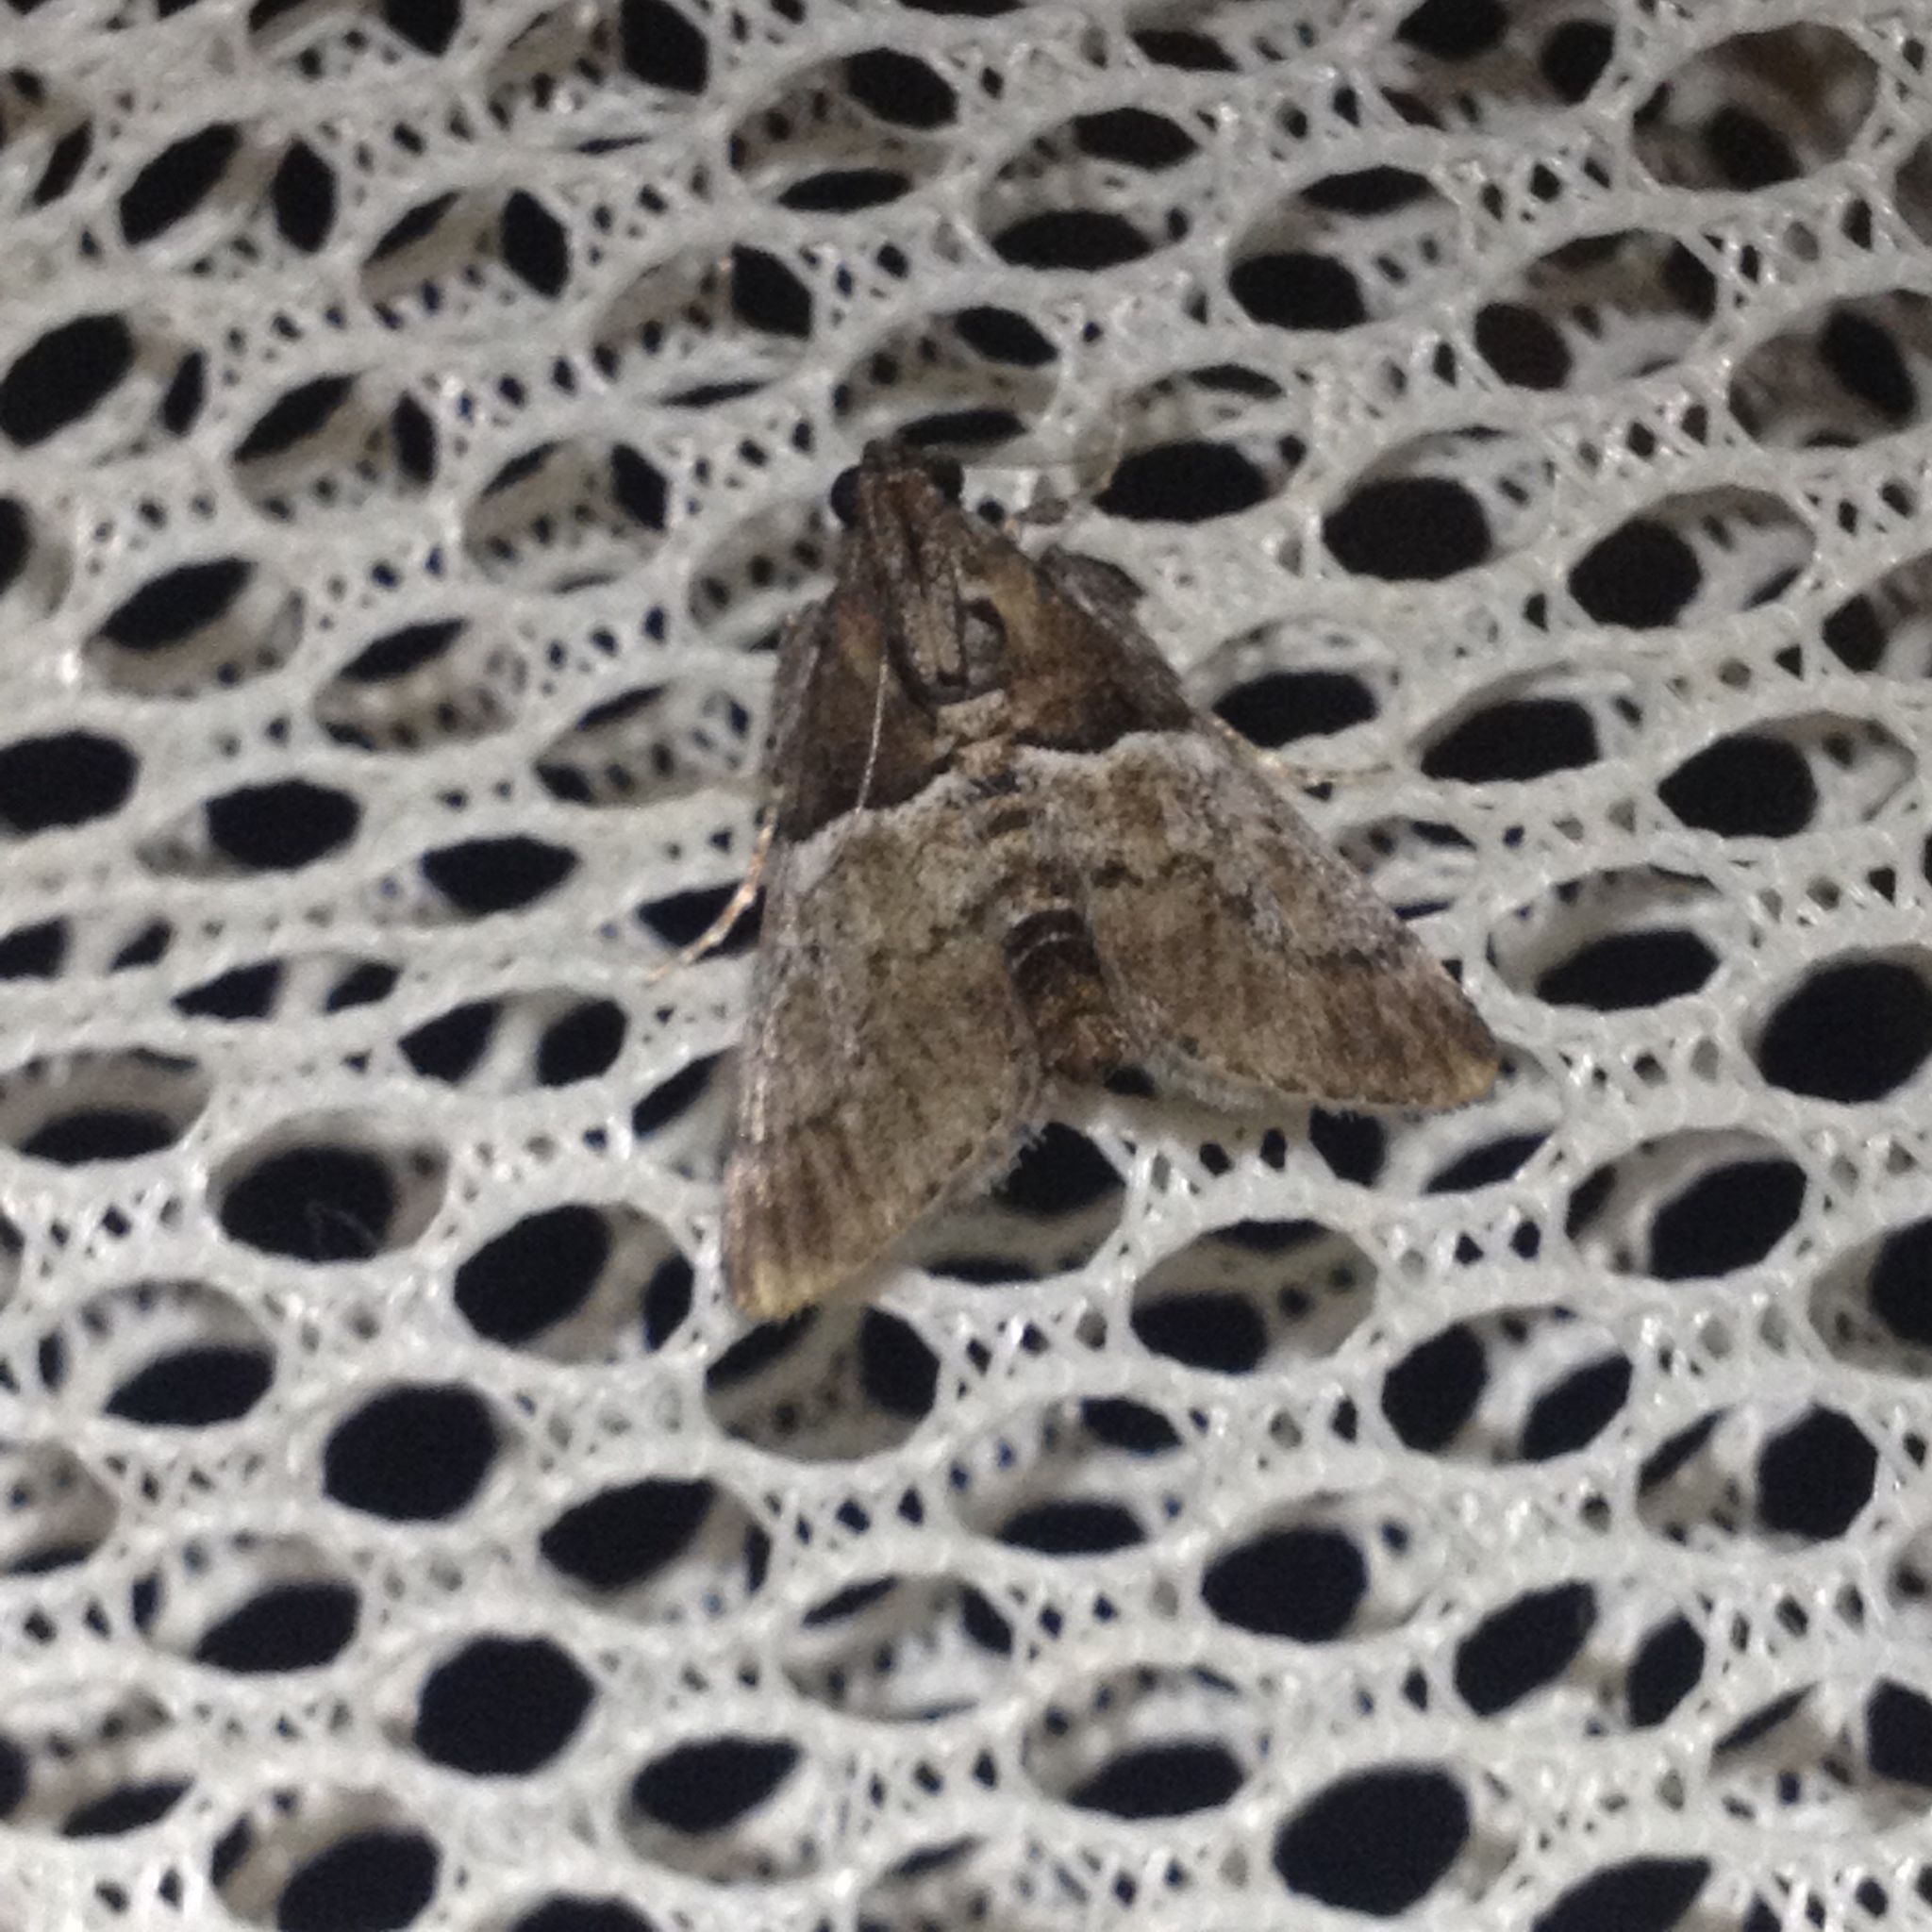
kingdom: Animalia
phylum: Arthropoda
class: Insecta
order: Lepidoptera
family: Pyralidae
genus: Macalla
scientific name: Macalla zelleri
